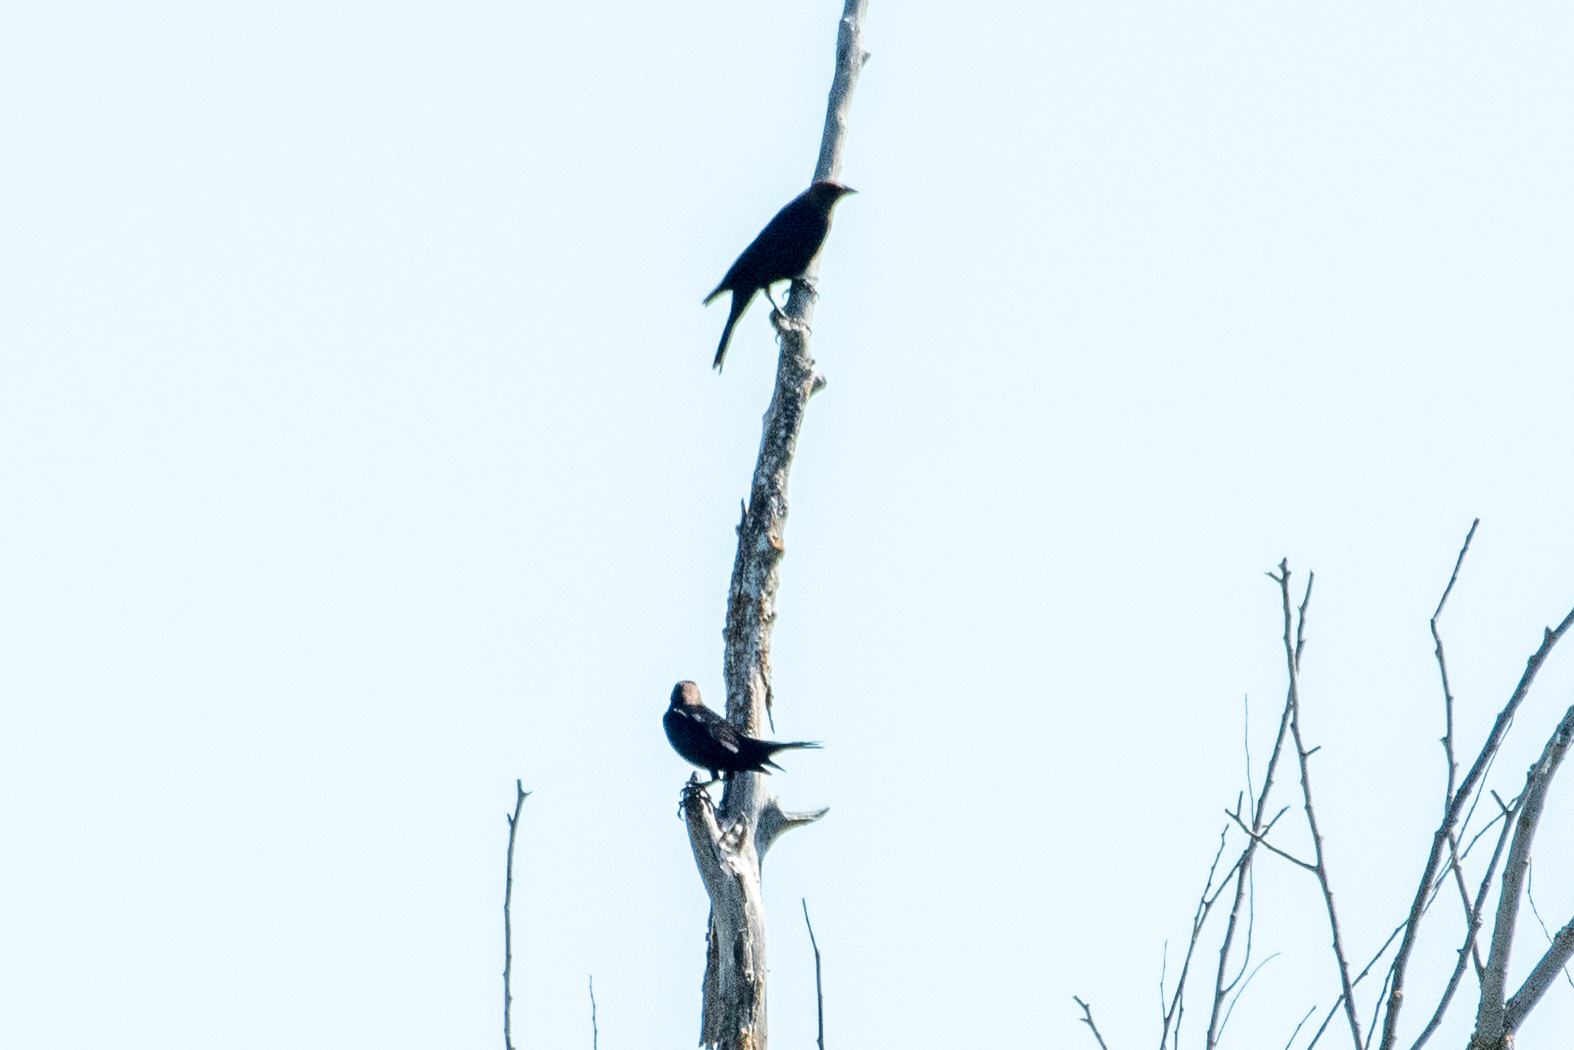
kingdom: Animalia
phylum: Chordata
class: Aves
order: Passeriformes
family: Icteridae
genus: Molothrus
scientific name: Molothrus ater
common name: Brown-headed cowbird
